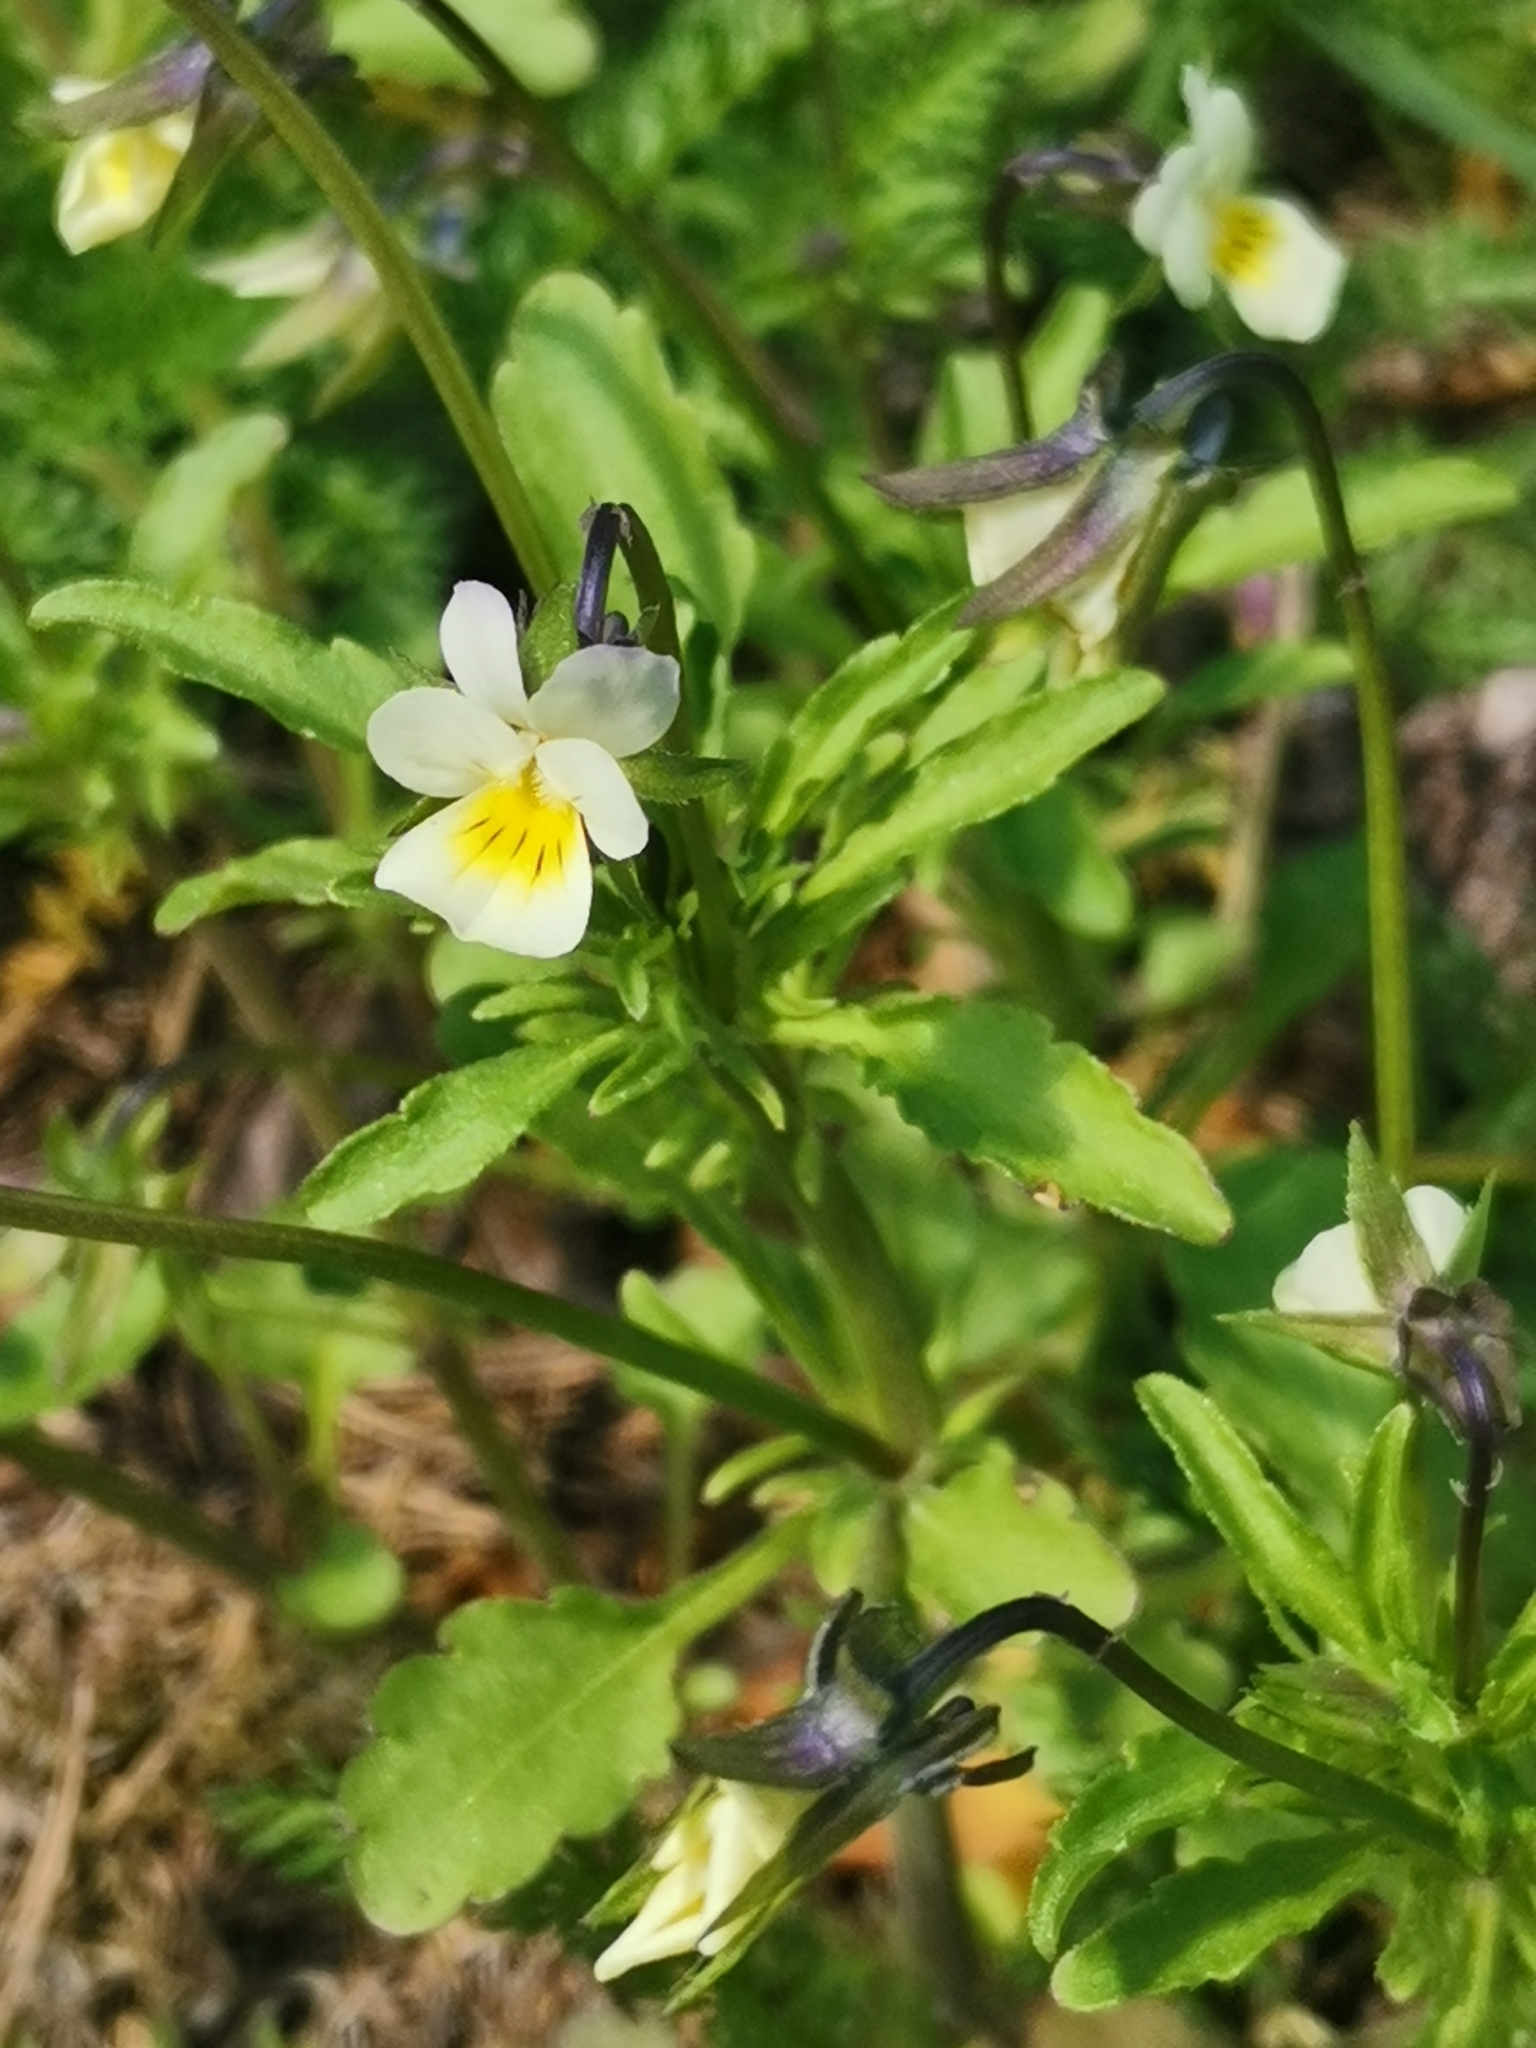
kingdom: Plantae
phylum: Tracheophyta
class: Magnoliopsida
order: Malpighiales
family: Violaceae
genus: Viola
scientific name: Viola arvensis
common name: Field pansy
